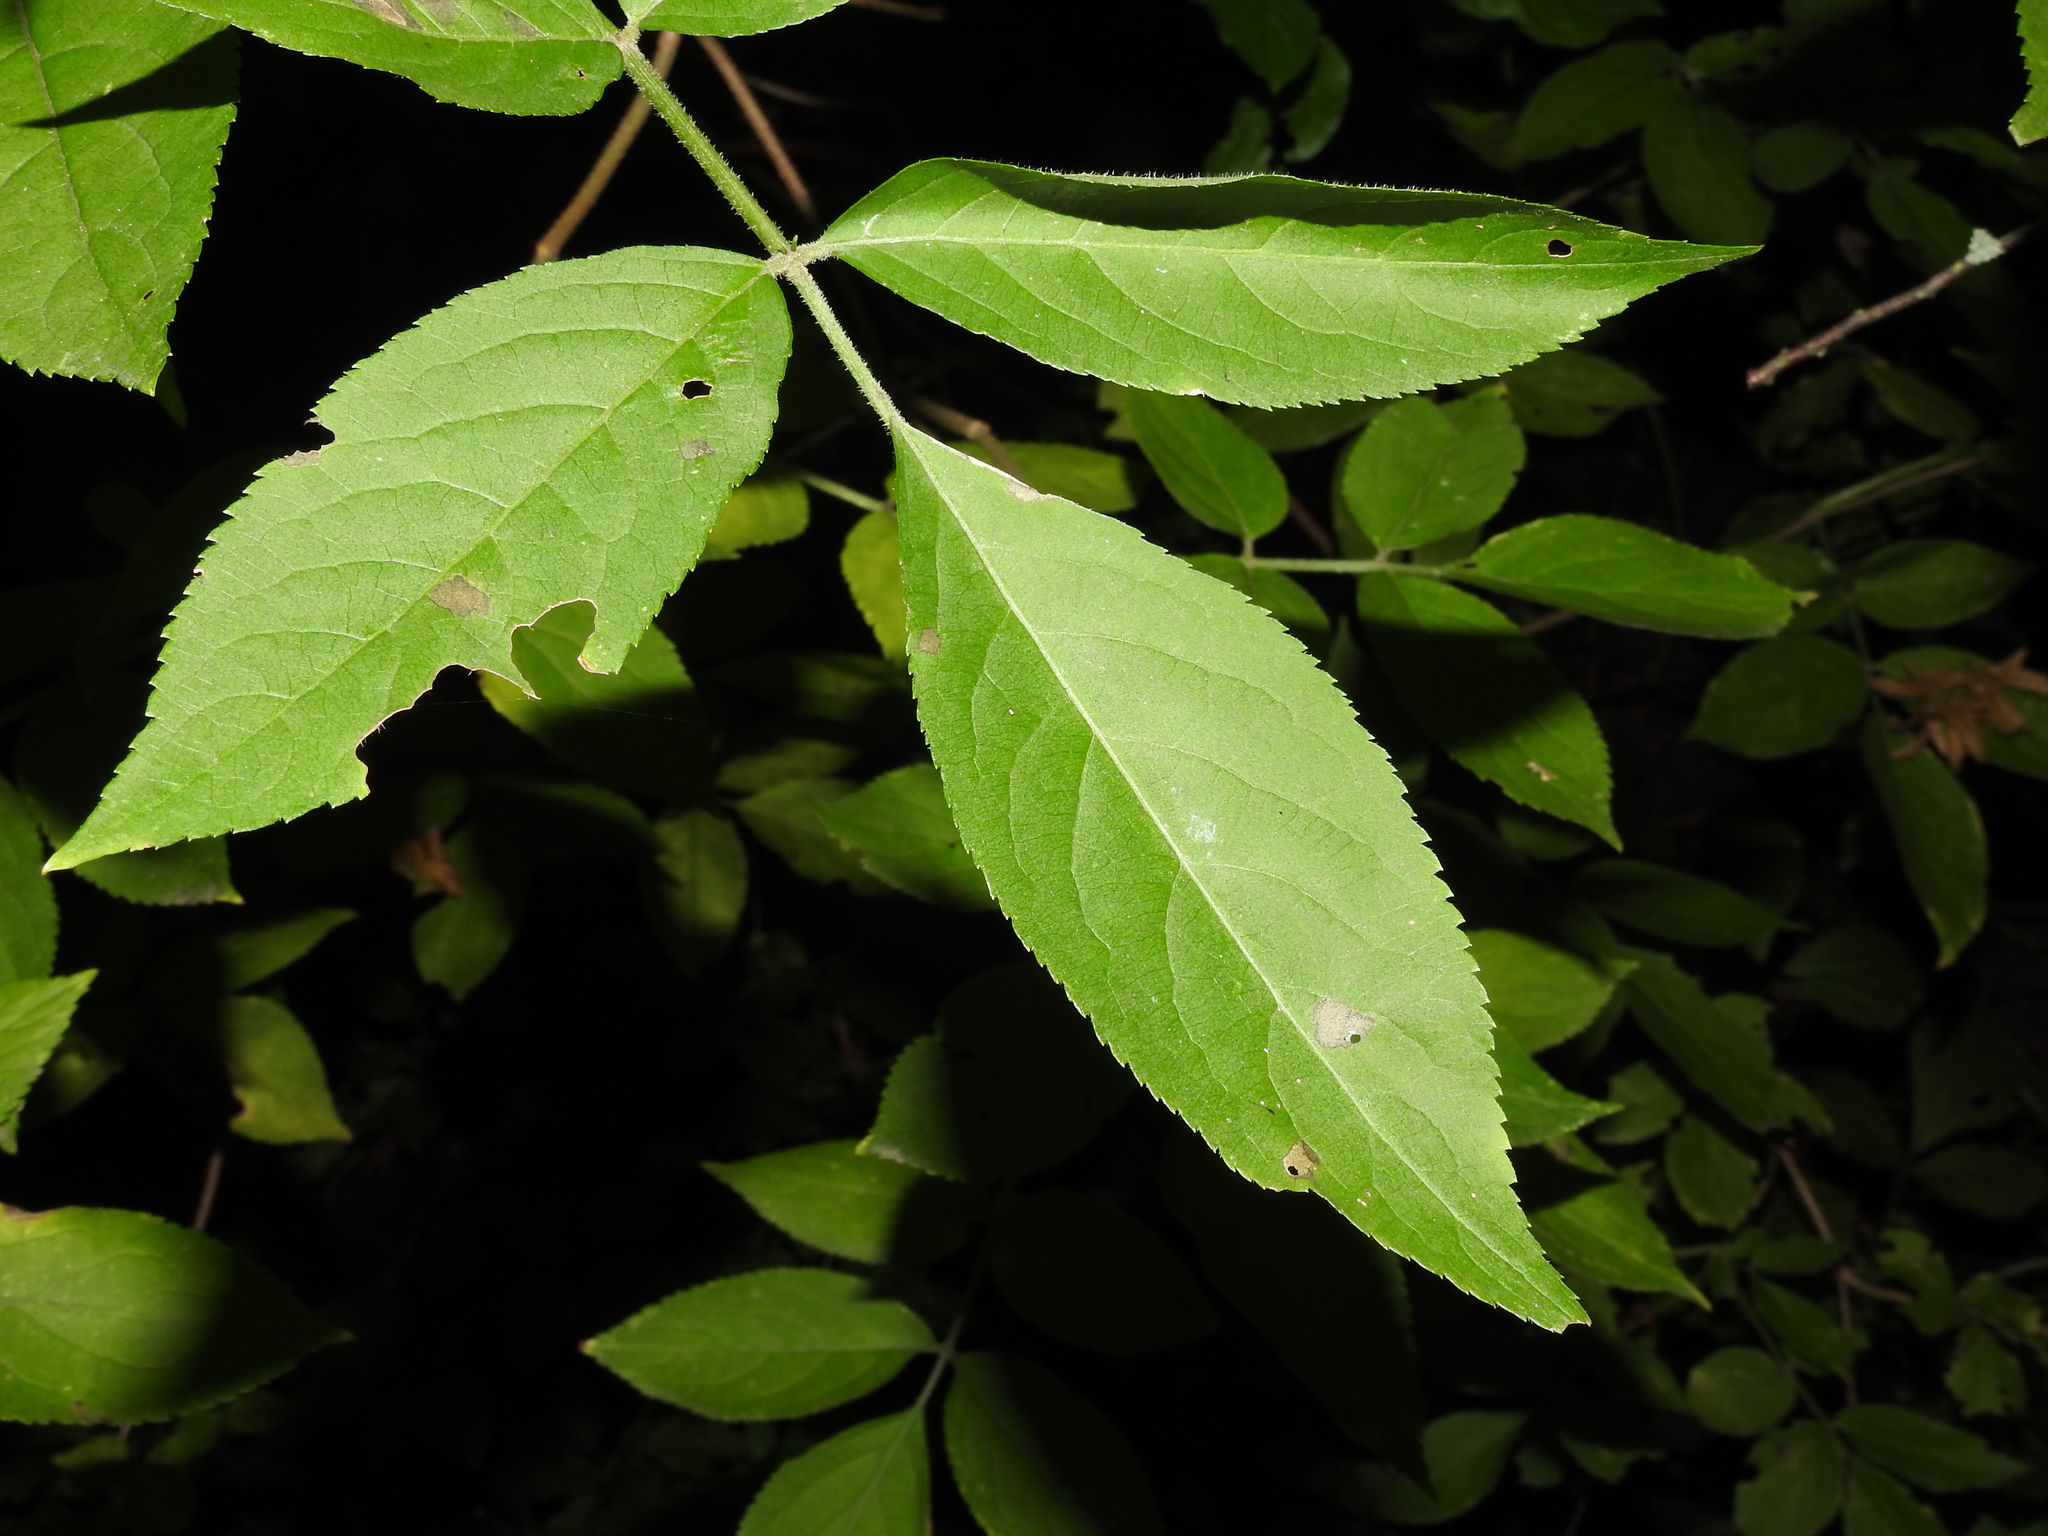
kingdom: Plantae
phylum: Tracheophyta
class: Magnoliopsida
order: Dipsacales
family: Viburnaceae
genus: Sambucus
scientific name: Sambucus nigra
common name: Elder
